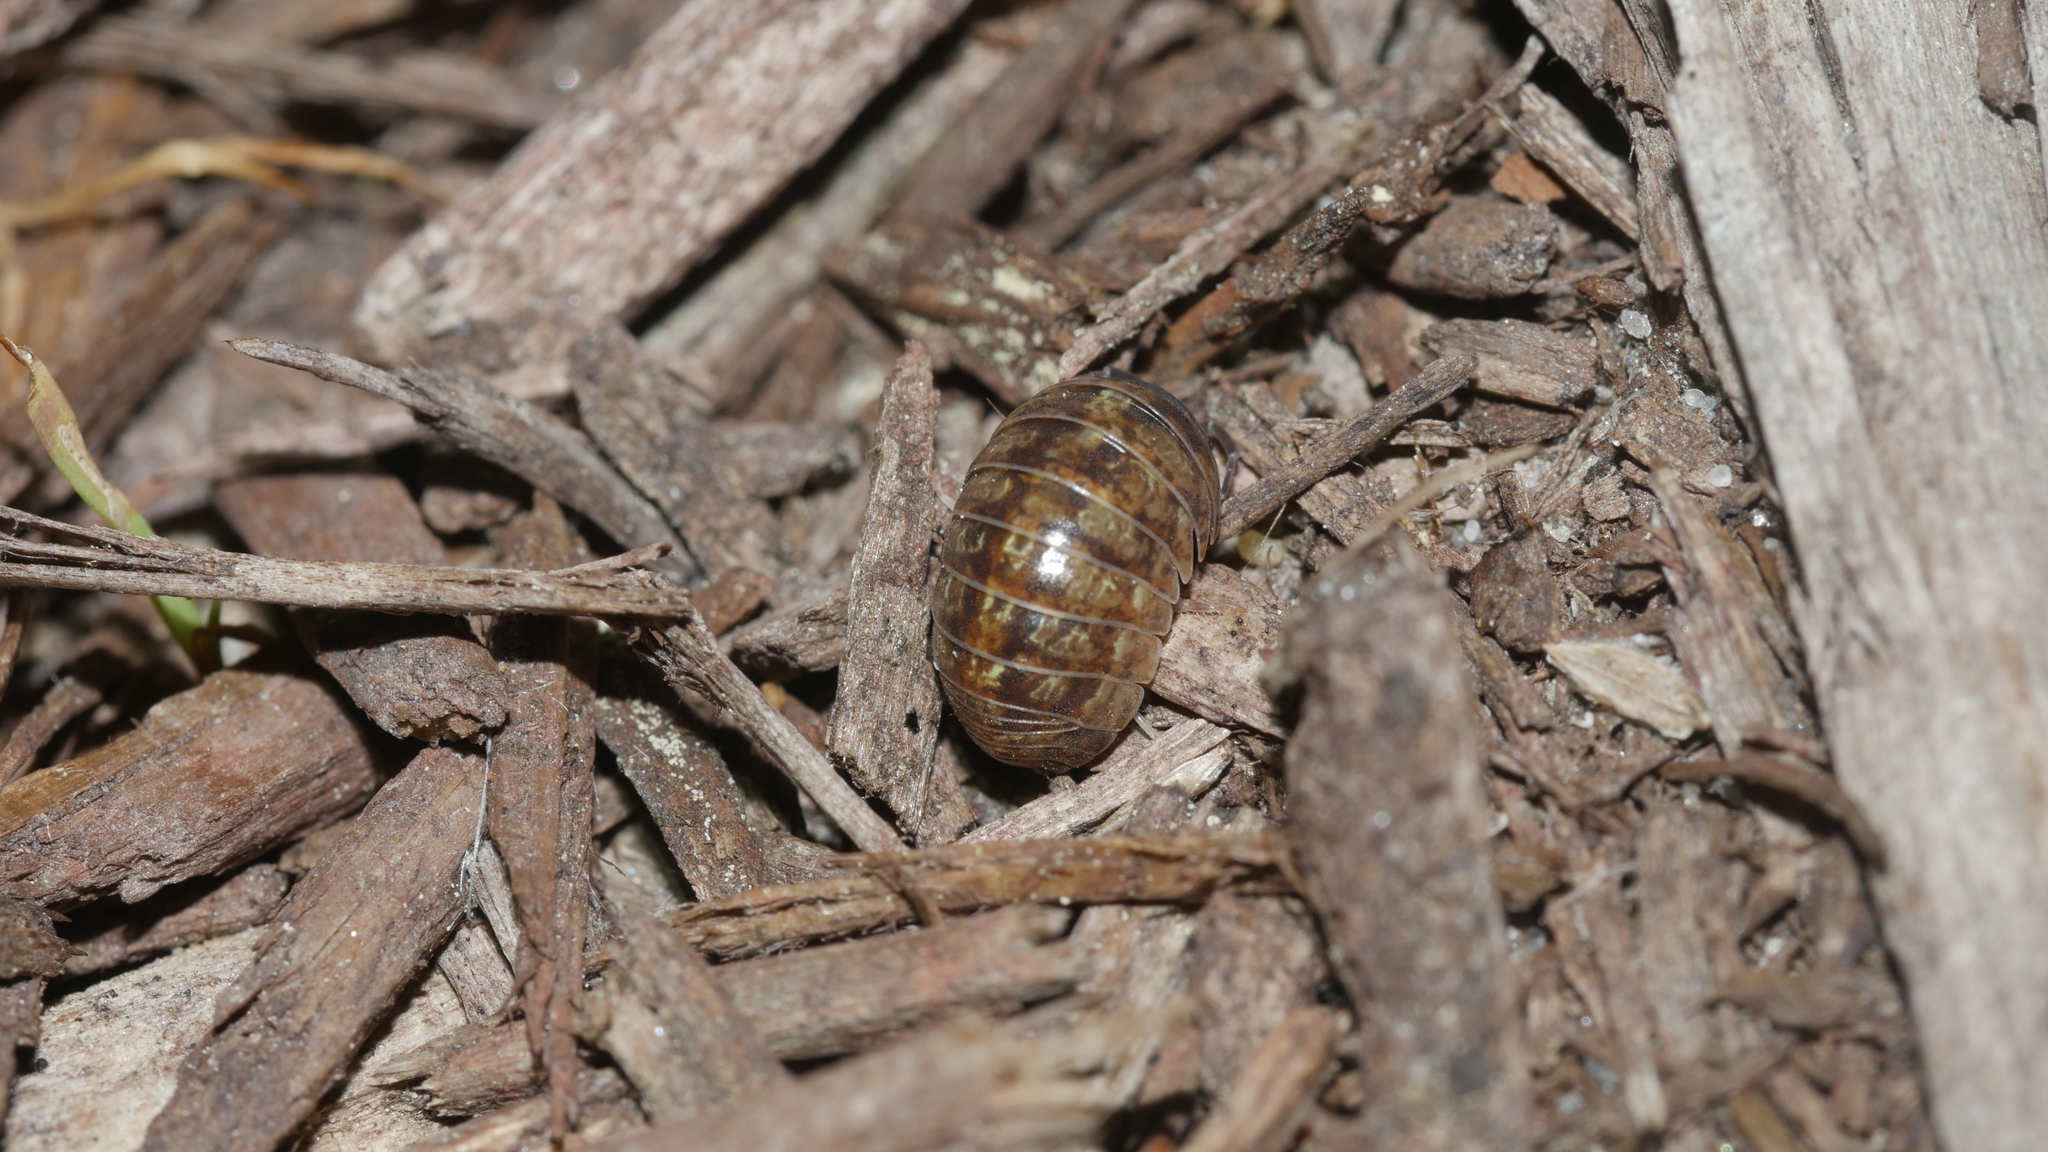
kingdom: Animalia
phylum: Arthropoda
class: Malacostraca
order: Isopoda
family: Armadillidiidae
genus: Armadillidium
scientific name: Armadillidium vulgare
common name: Common pill woodlouse
